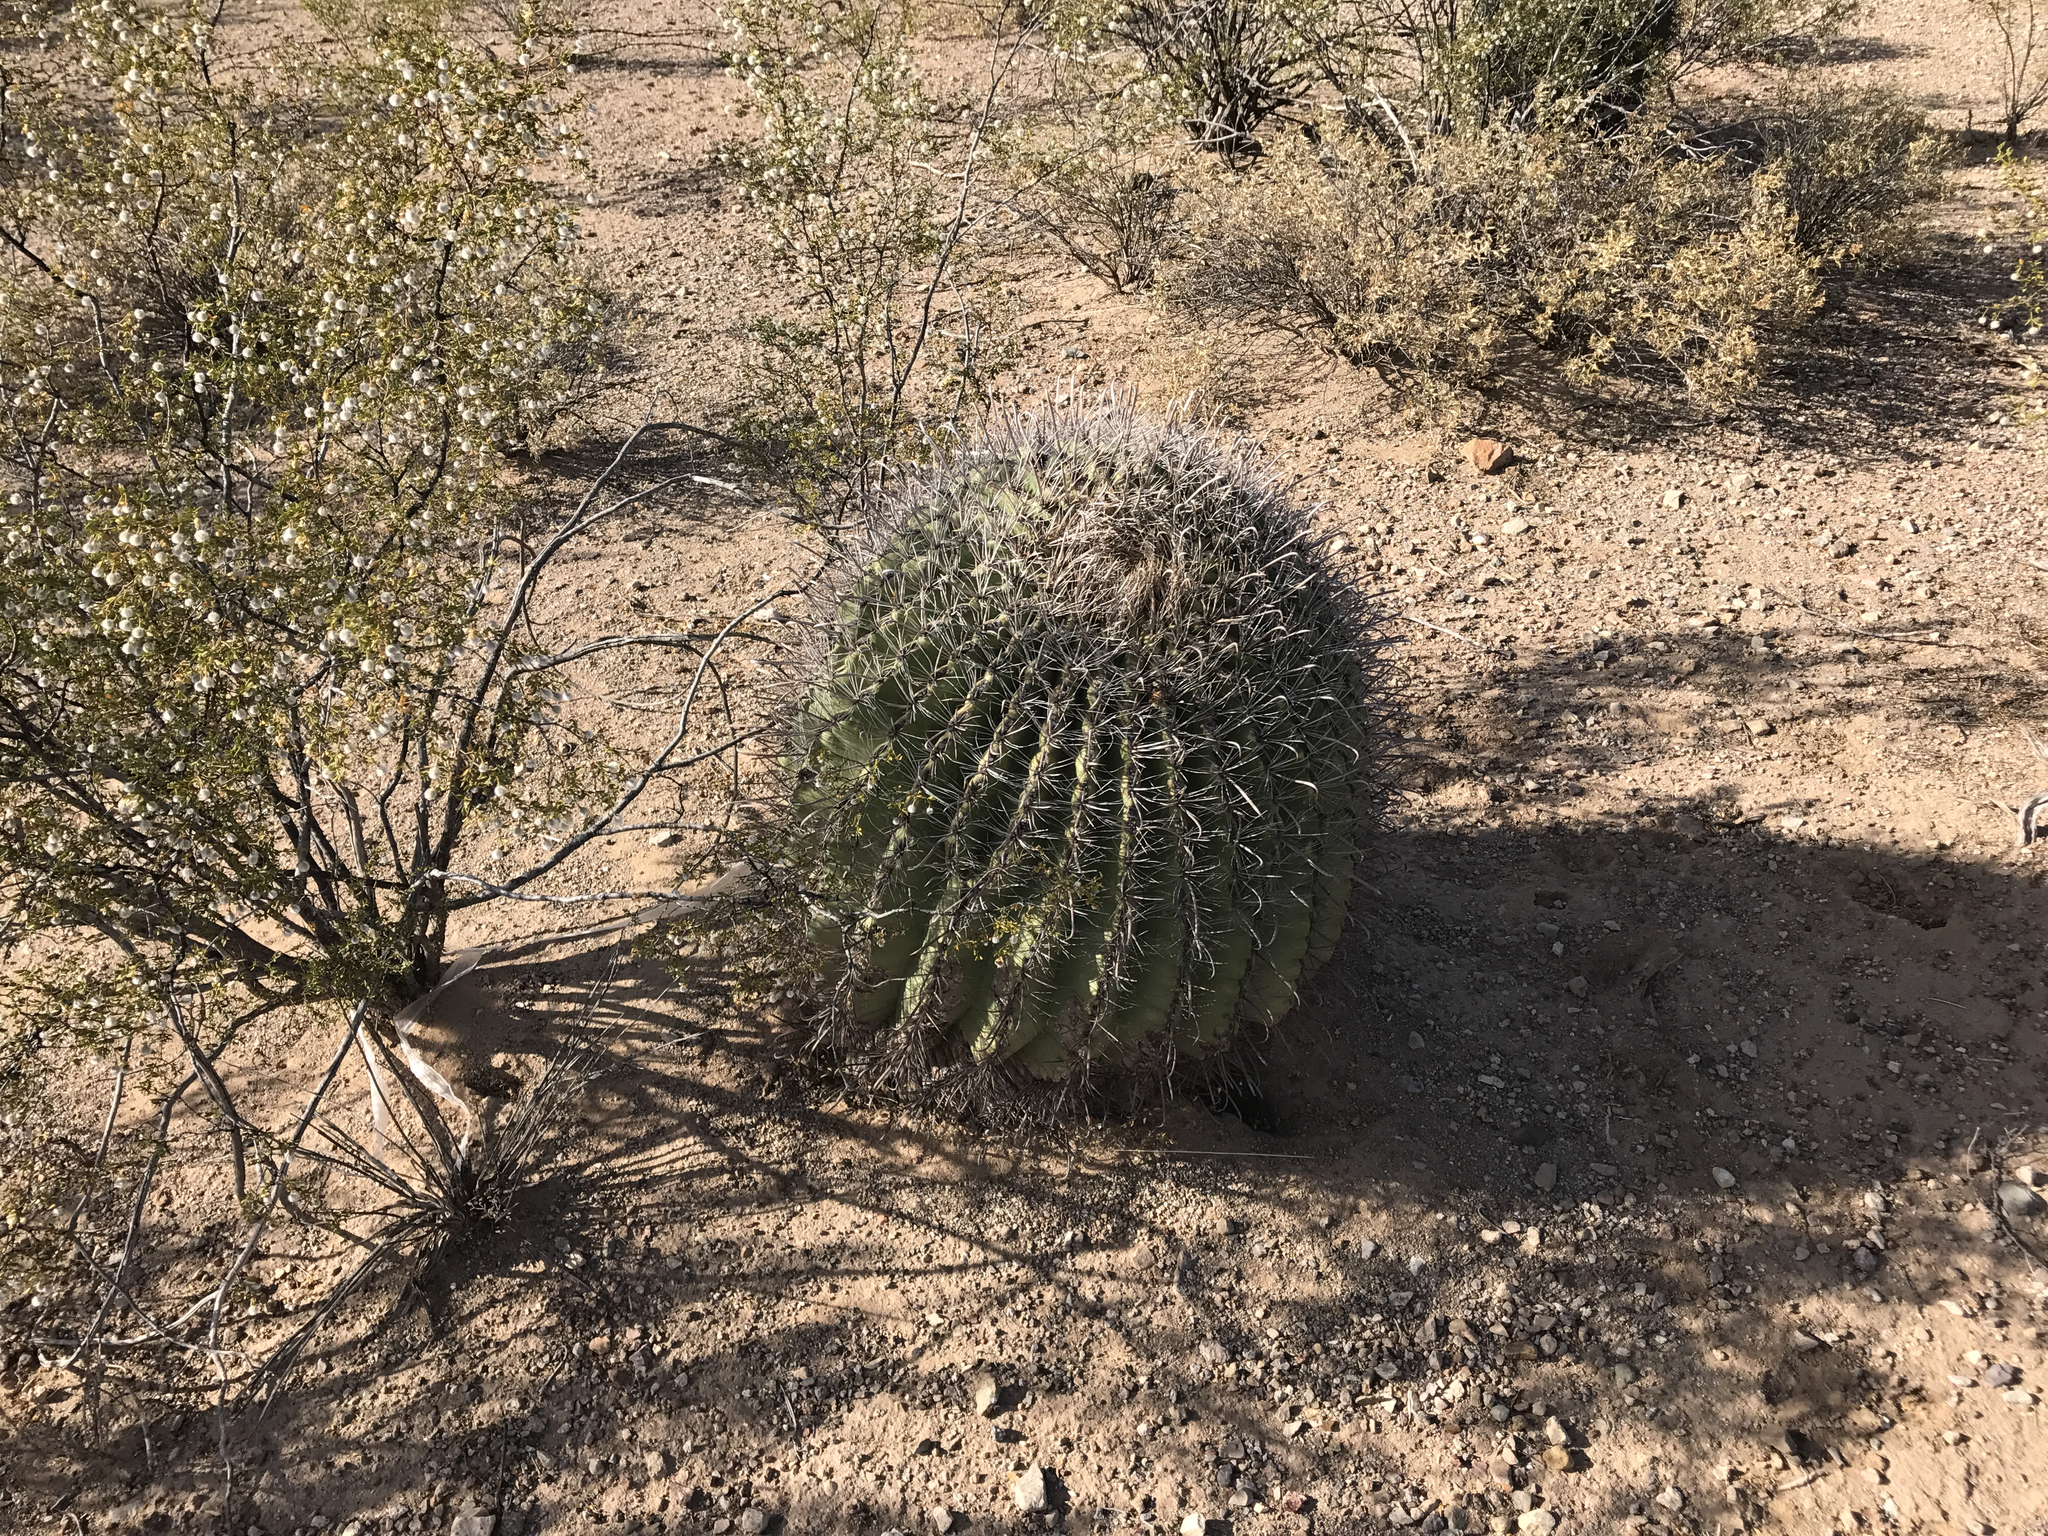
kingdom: Plantae
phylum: Tracheophyta
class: Magnoliopsida
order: Caryophyllales
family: Cactaceae
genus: Ferocactus
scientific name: Ferocactus wislizeni
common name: Candy barrel cactus
